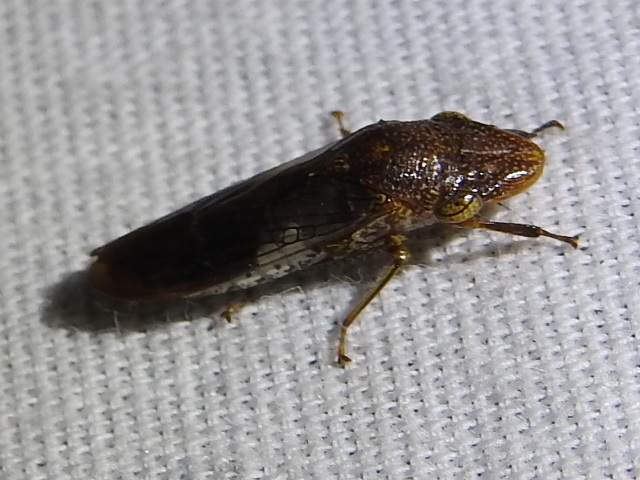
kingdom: Animalia
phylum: Arthropoda
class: Insecta
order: Hemiptera
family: Cicadellidae
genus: Homalodisca
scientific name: Homalodisca vitripennis
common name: Glassy-winged sharpshooter
